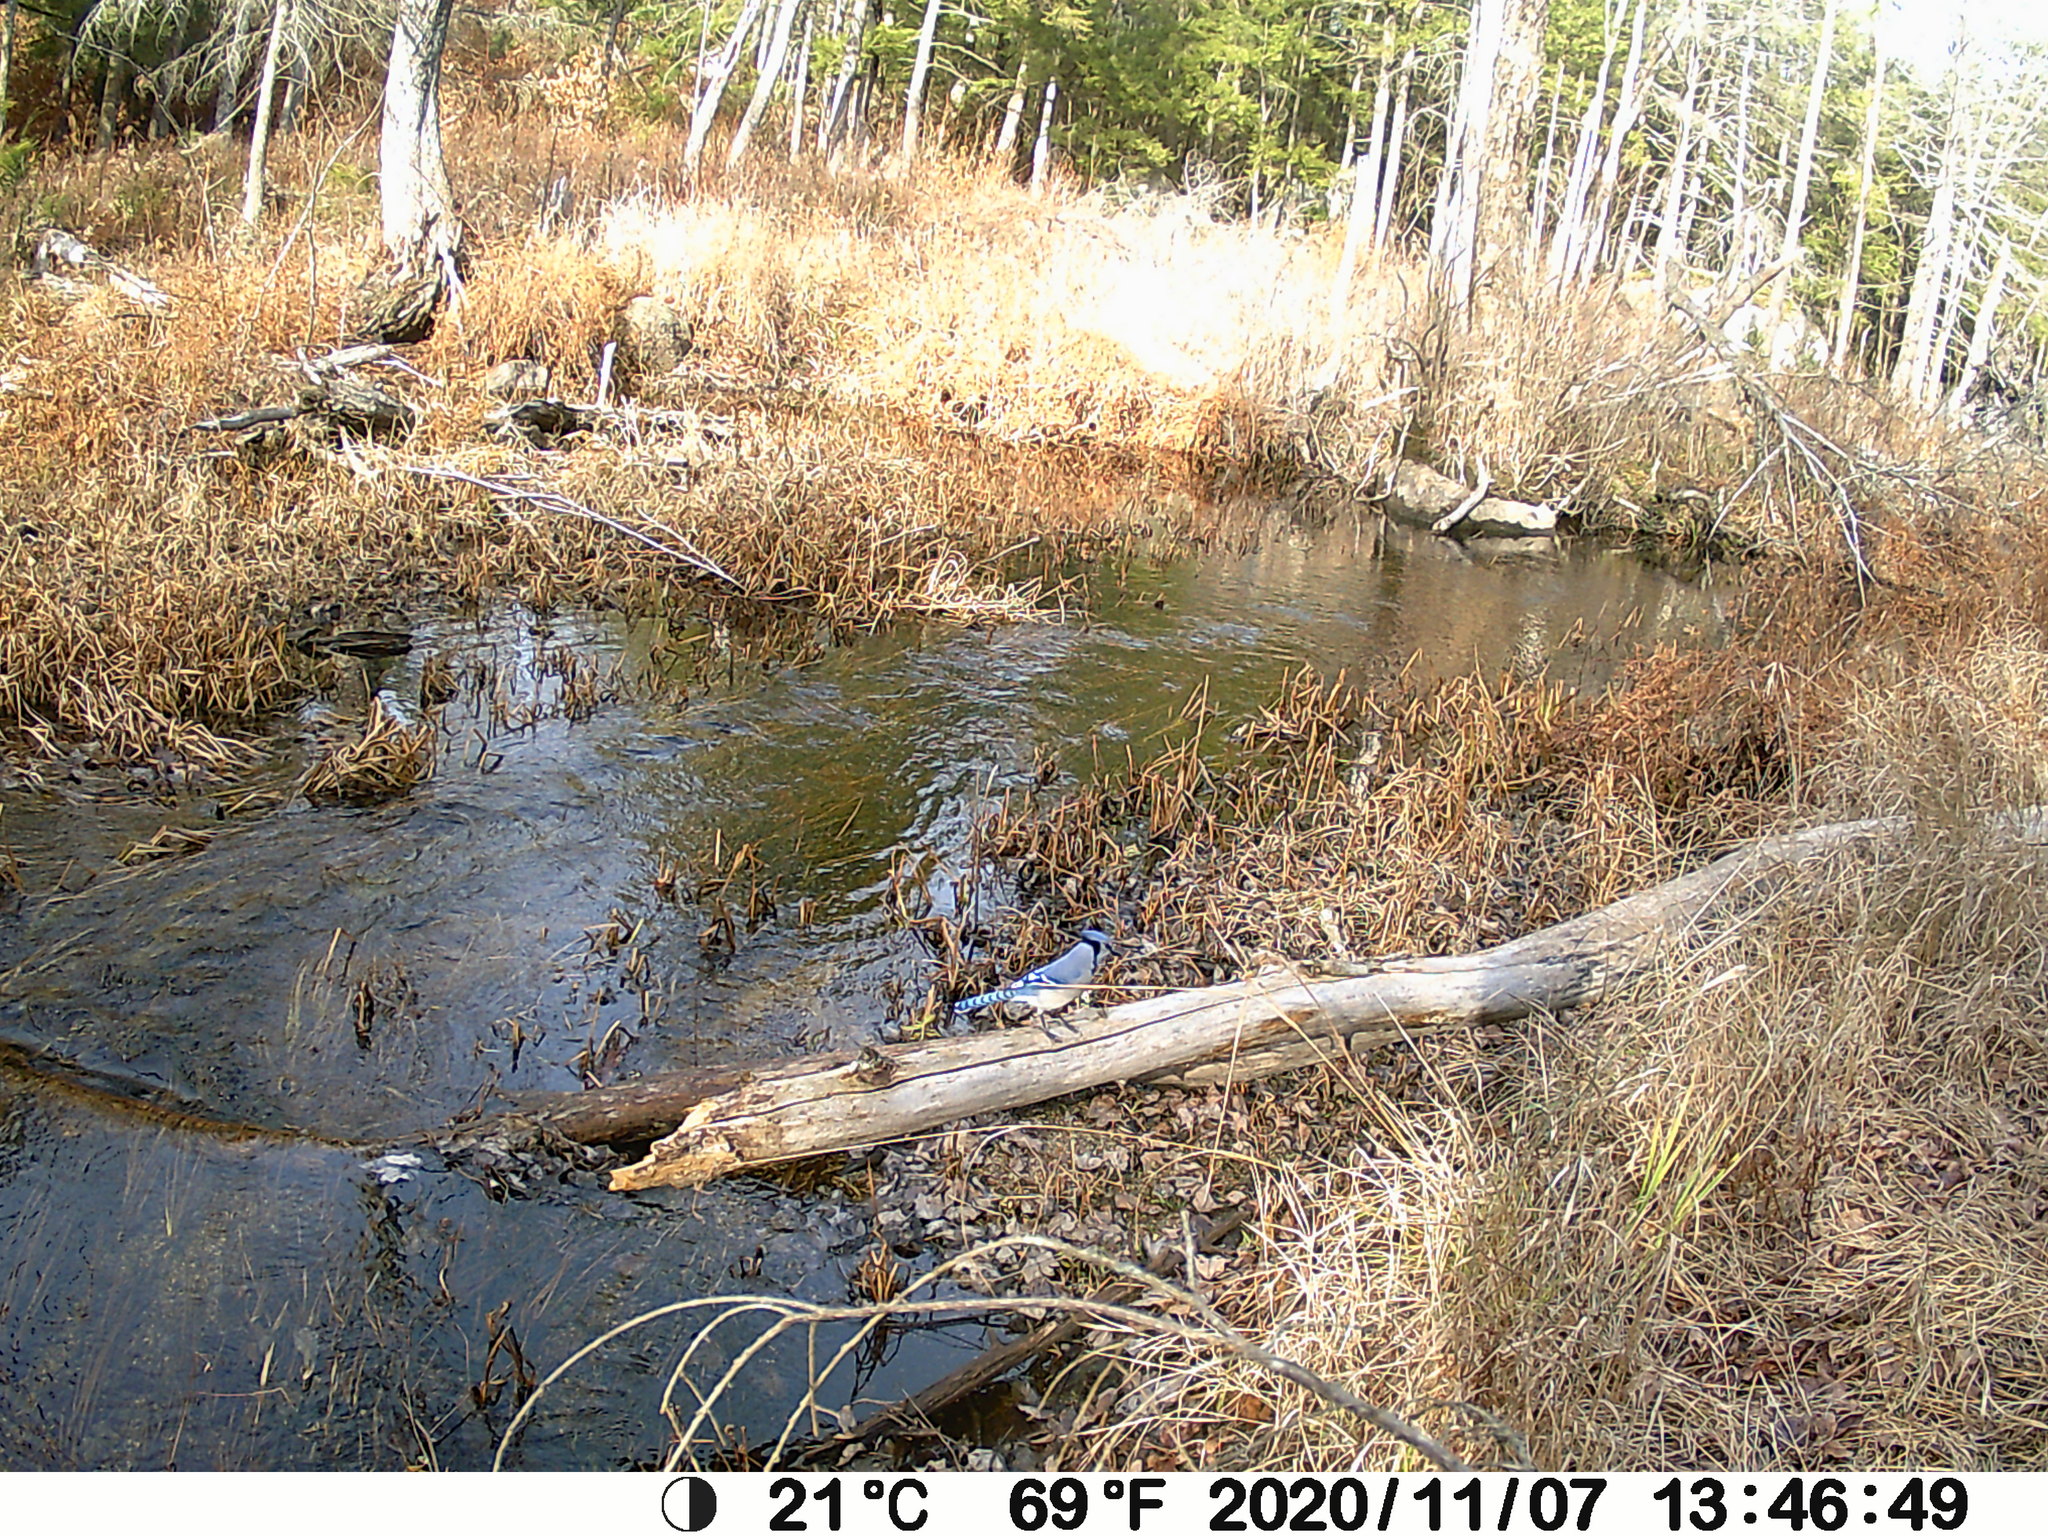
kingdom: Animalia
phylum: Chordata
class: Aves
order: Passeriformes
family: Corvidae
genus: Cyanocitta
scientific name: Cyanocitta cristata
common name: Blue jay
